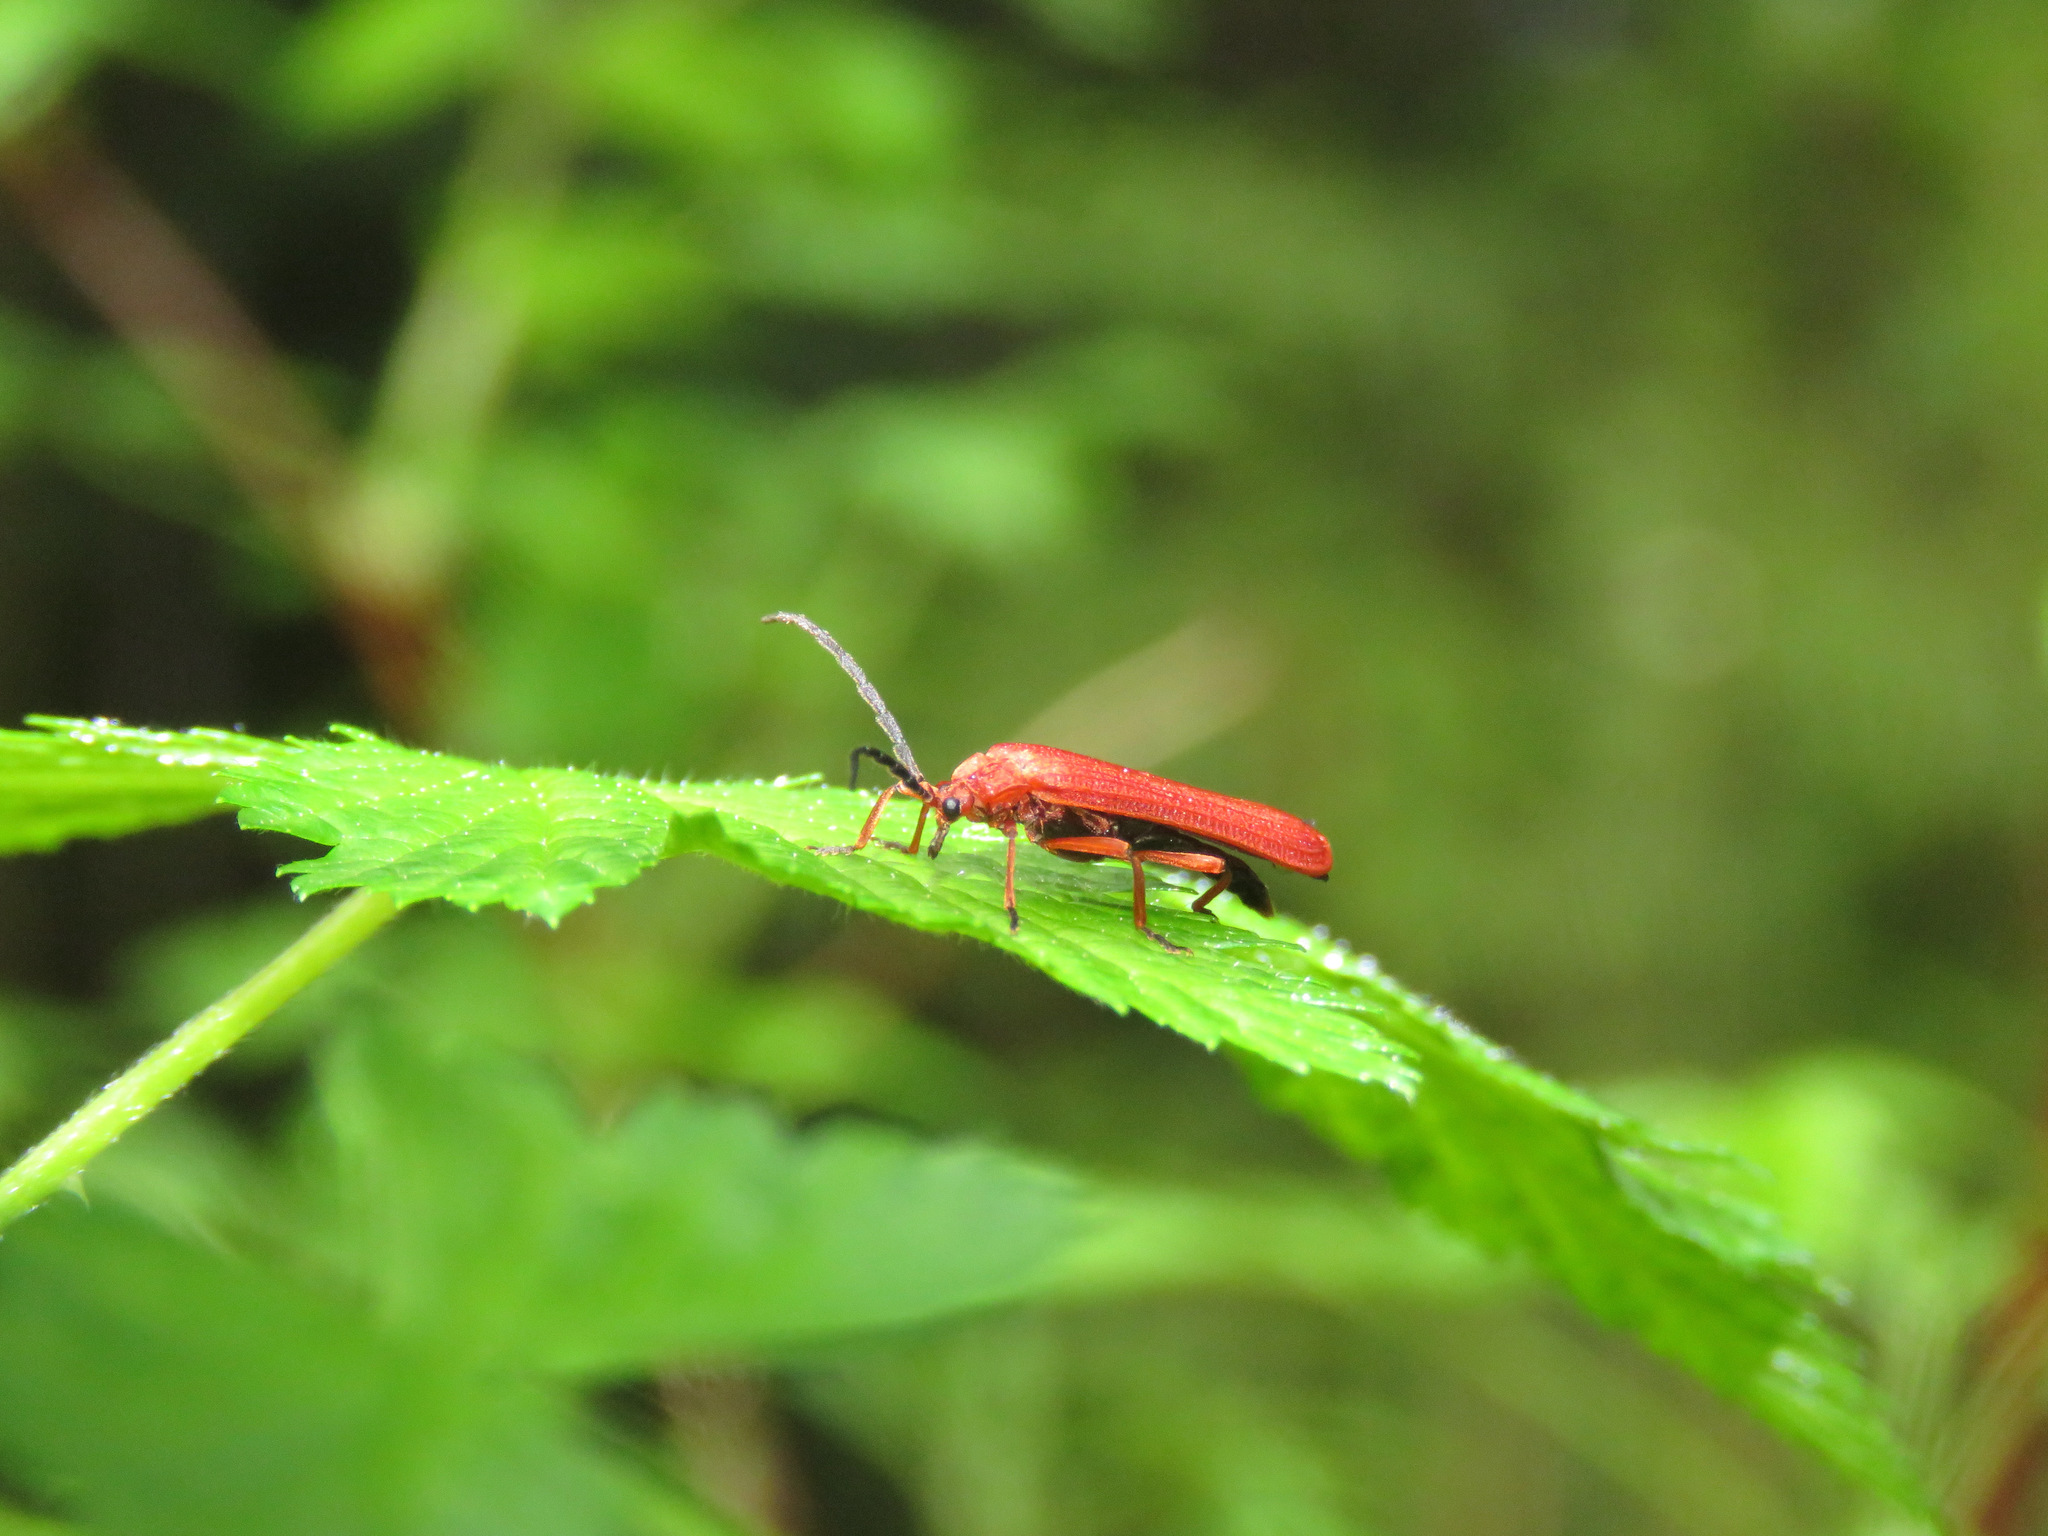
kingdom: Animalia
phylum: Arthropoda
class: Insecta
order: Coleoptera
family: Lycidae
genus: Punicealis
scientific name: Punicealis hamata
